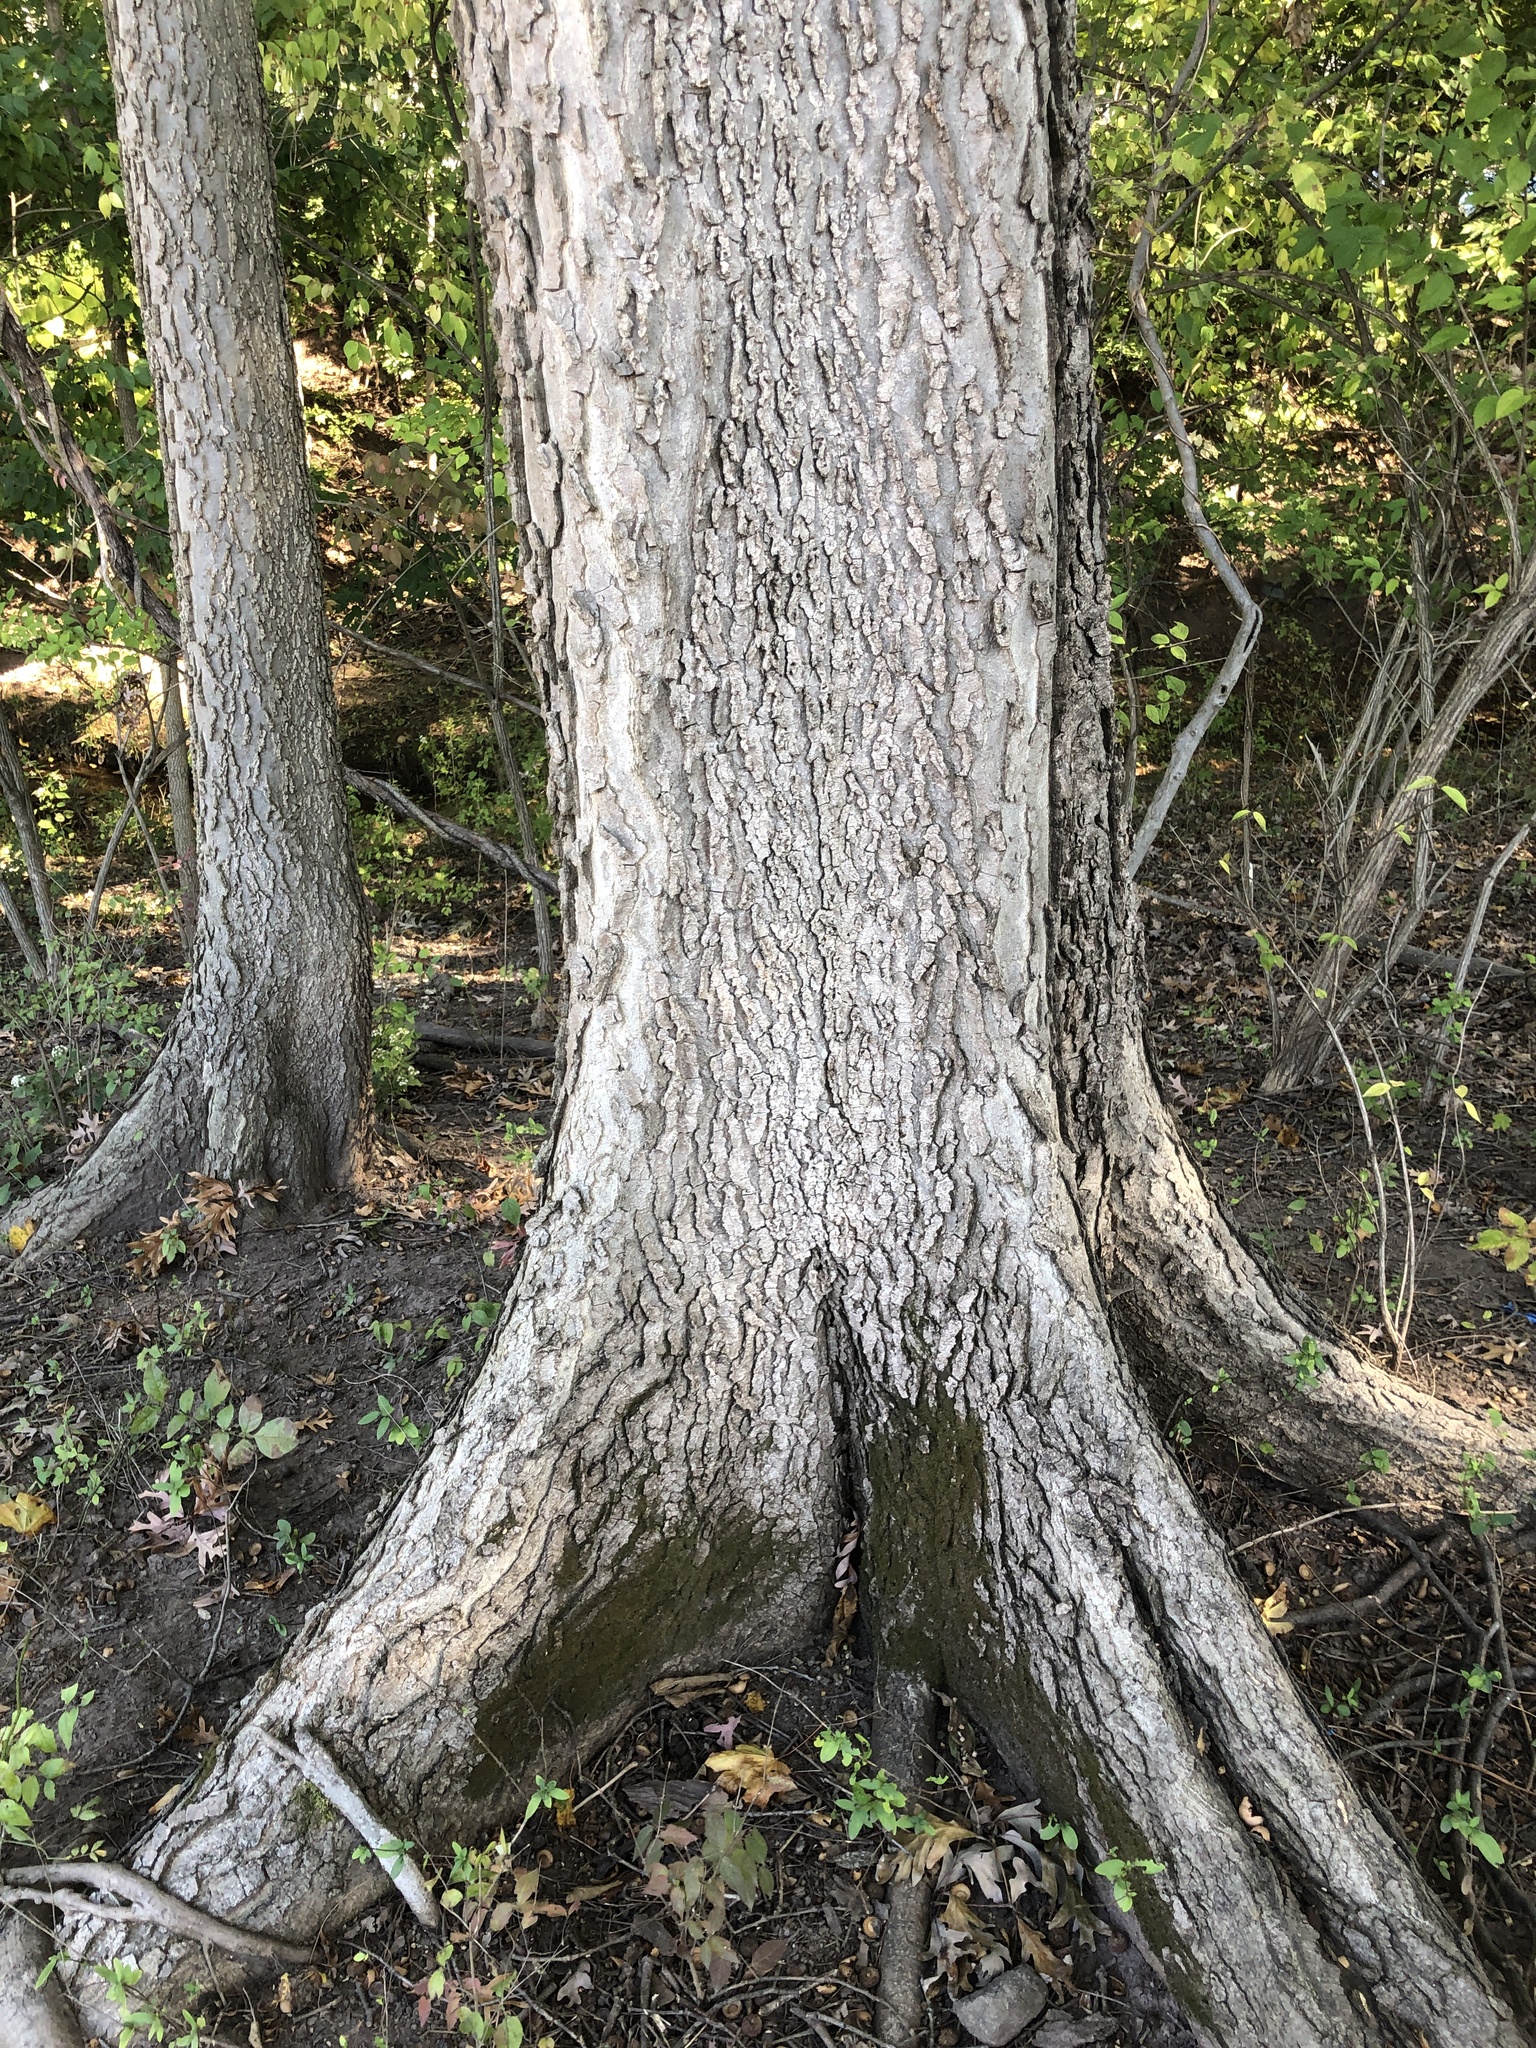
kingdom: Plantae
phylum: Tracheophyta
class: Magnoliopsida
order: Rosales
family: Cannabaceae
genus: Celtis
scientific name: Celtis occidentalis
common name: Common hackberry
